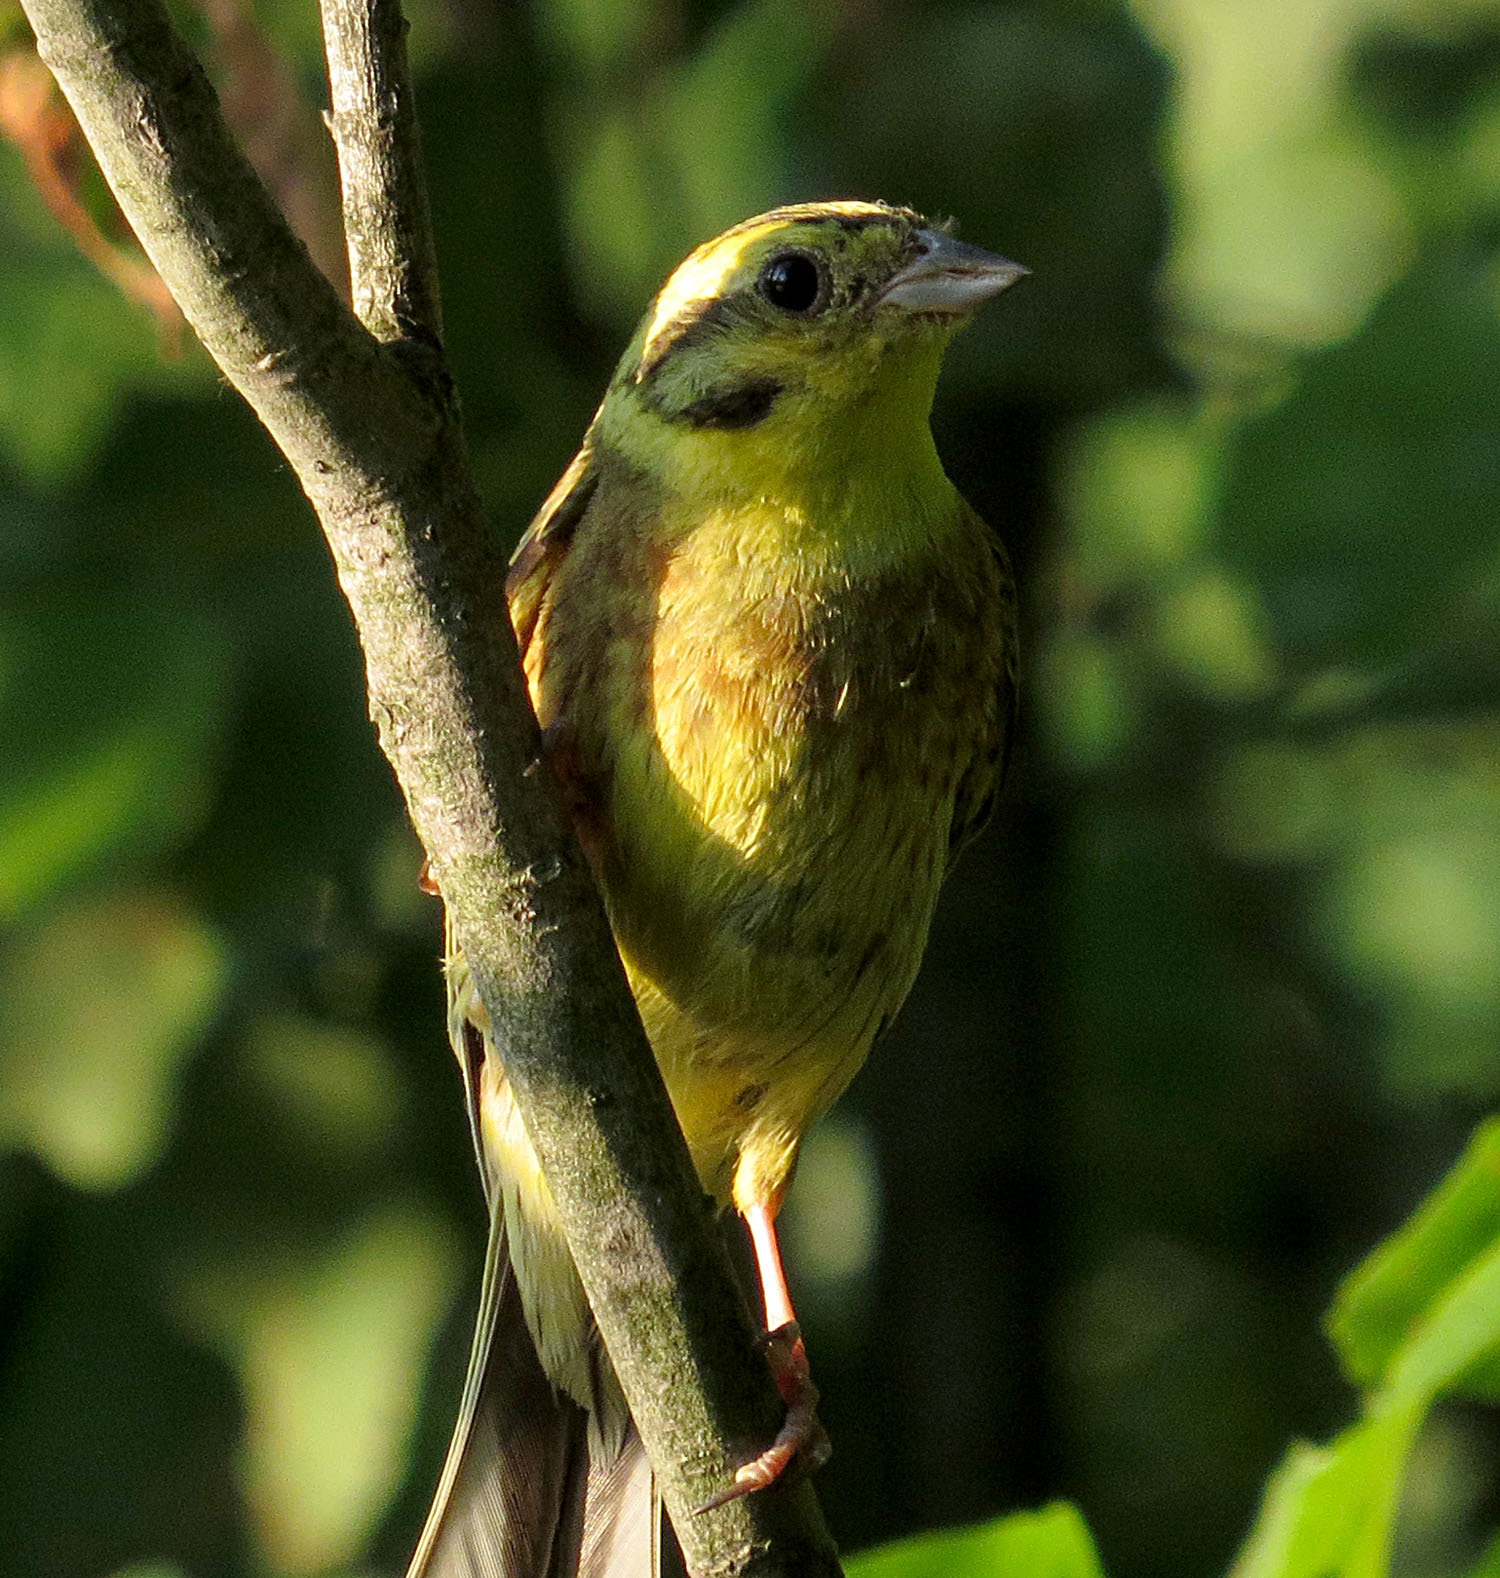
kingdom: Animalia
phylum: Chordata
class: Aves
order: Passeriformes
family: Emberizidae
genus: Emberiza
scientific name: Emberiza citrinella
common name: Yellowhammer
